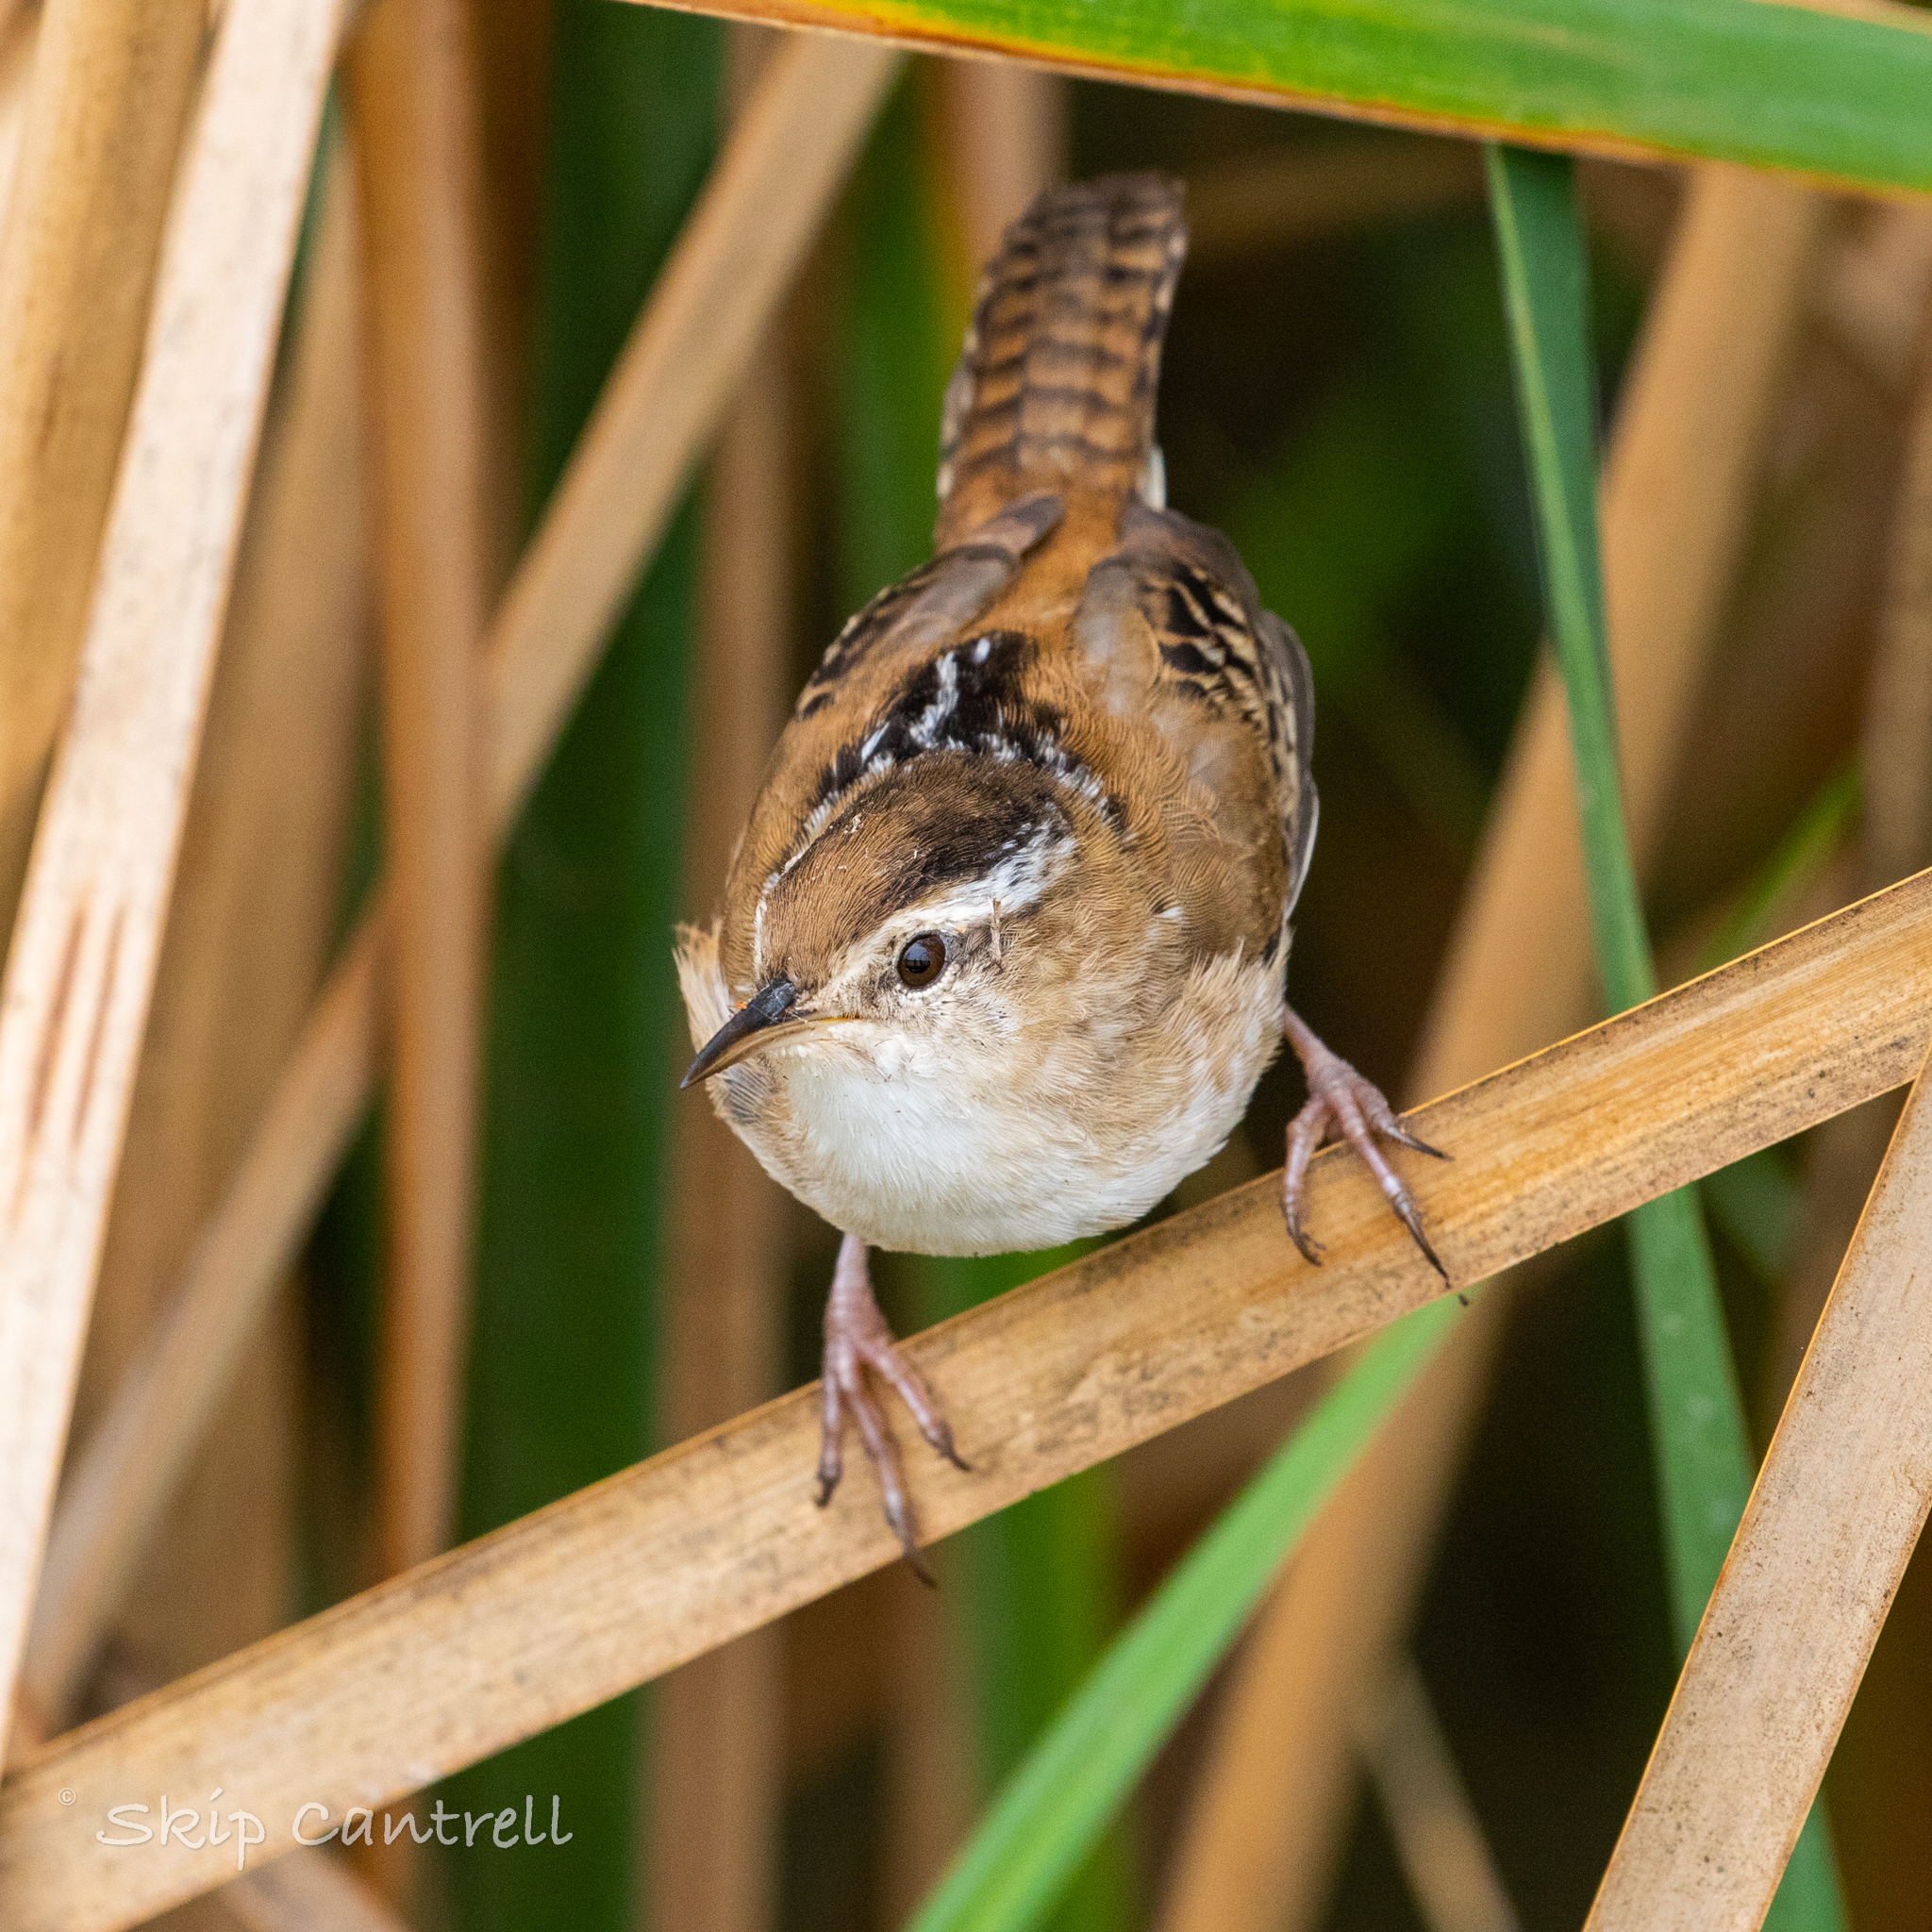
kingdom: Animalia
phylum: Chordata
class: Aves
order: Passeriformes
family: Troglodytidae
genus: Cistothorus
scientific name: Cistothorus palustris
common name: Marsh wren
